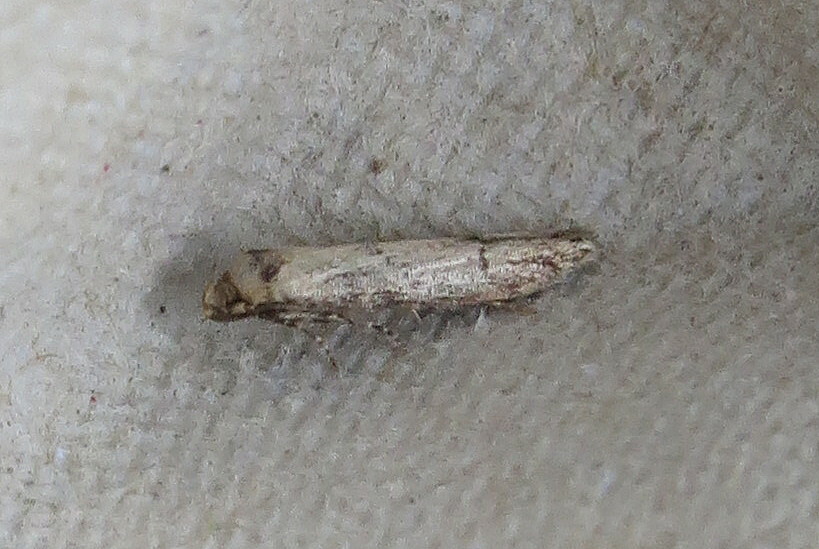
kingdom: Animalia
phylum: Arthropoda
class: Insecta
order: Lepidoptera
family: Blastobasidae
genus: Blastobasis
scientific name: Blastobasis adustella
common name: Dingy dowd
